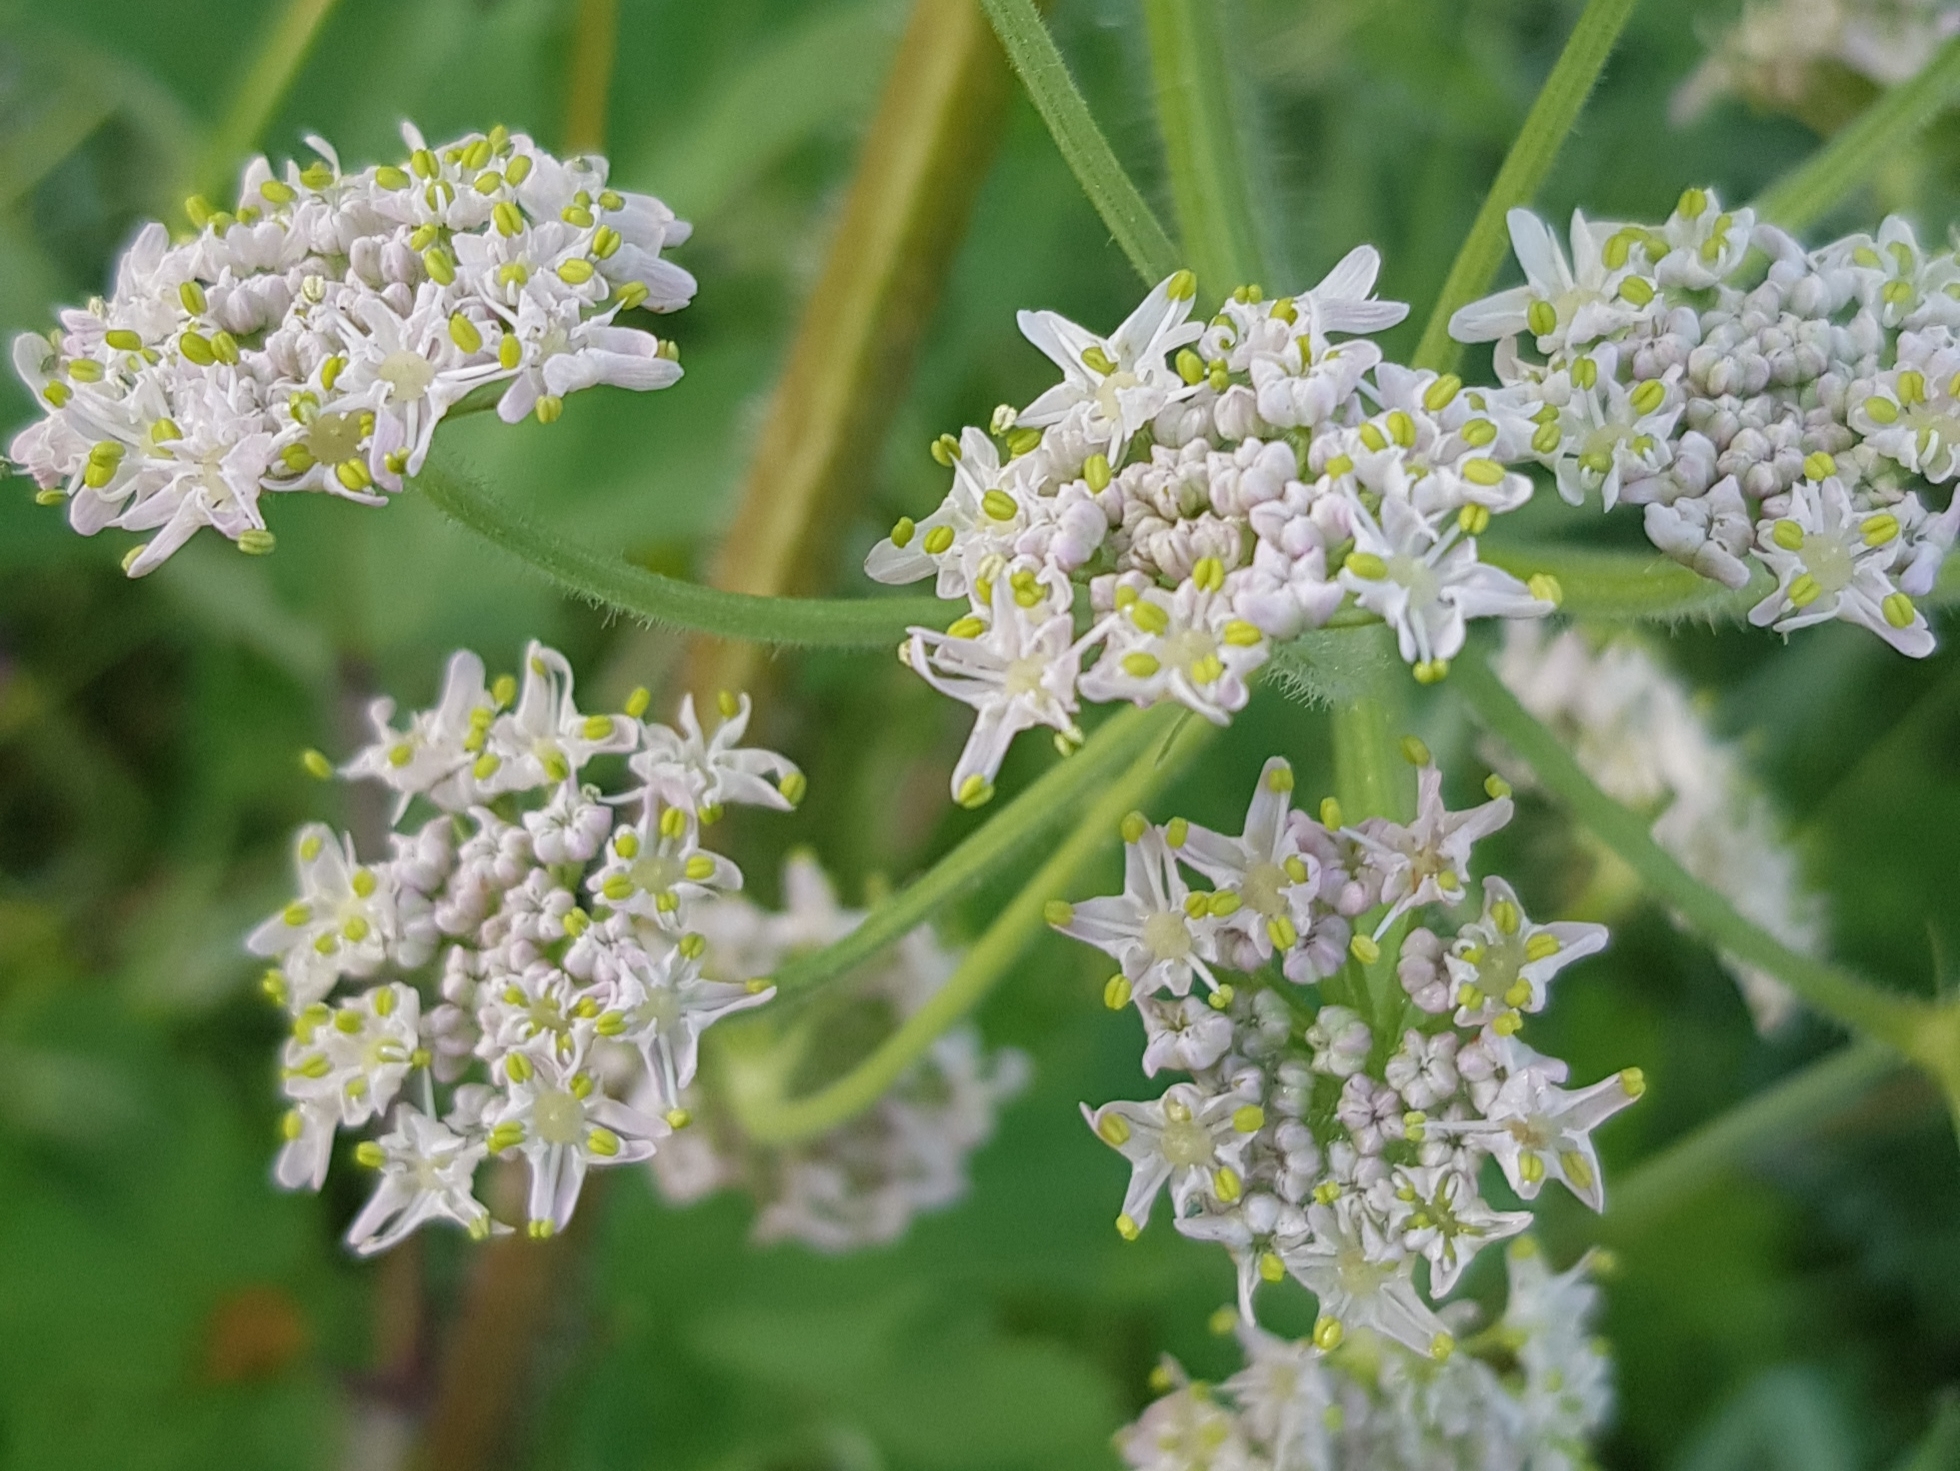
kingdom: Plantae
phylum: Tracheophyta
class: Magnoliopsida
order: Apiales
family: Apiaceae
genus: Heracleum
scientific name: Heracleum dissectum
